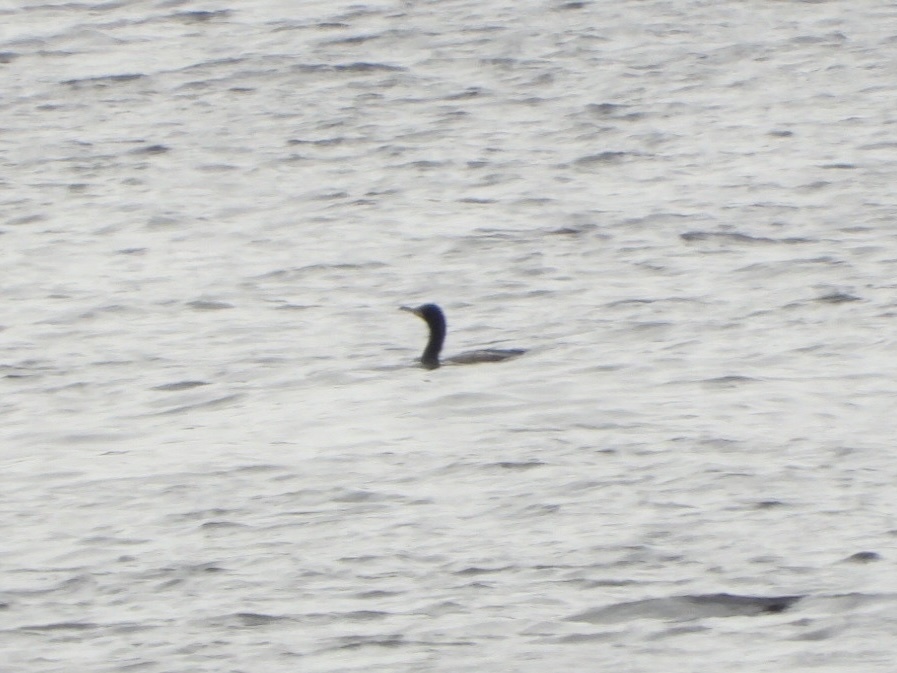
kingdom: Animalia
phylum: Chordata
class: Aves
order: Suliformes
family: Phalacrocoracidae
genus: Phalacrocorax
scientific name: Phalacrocorax auritus
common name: Double-crested cormorant
